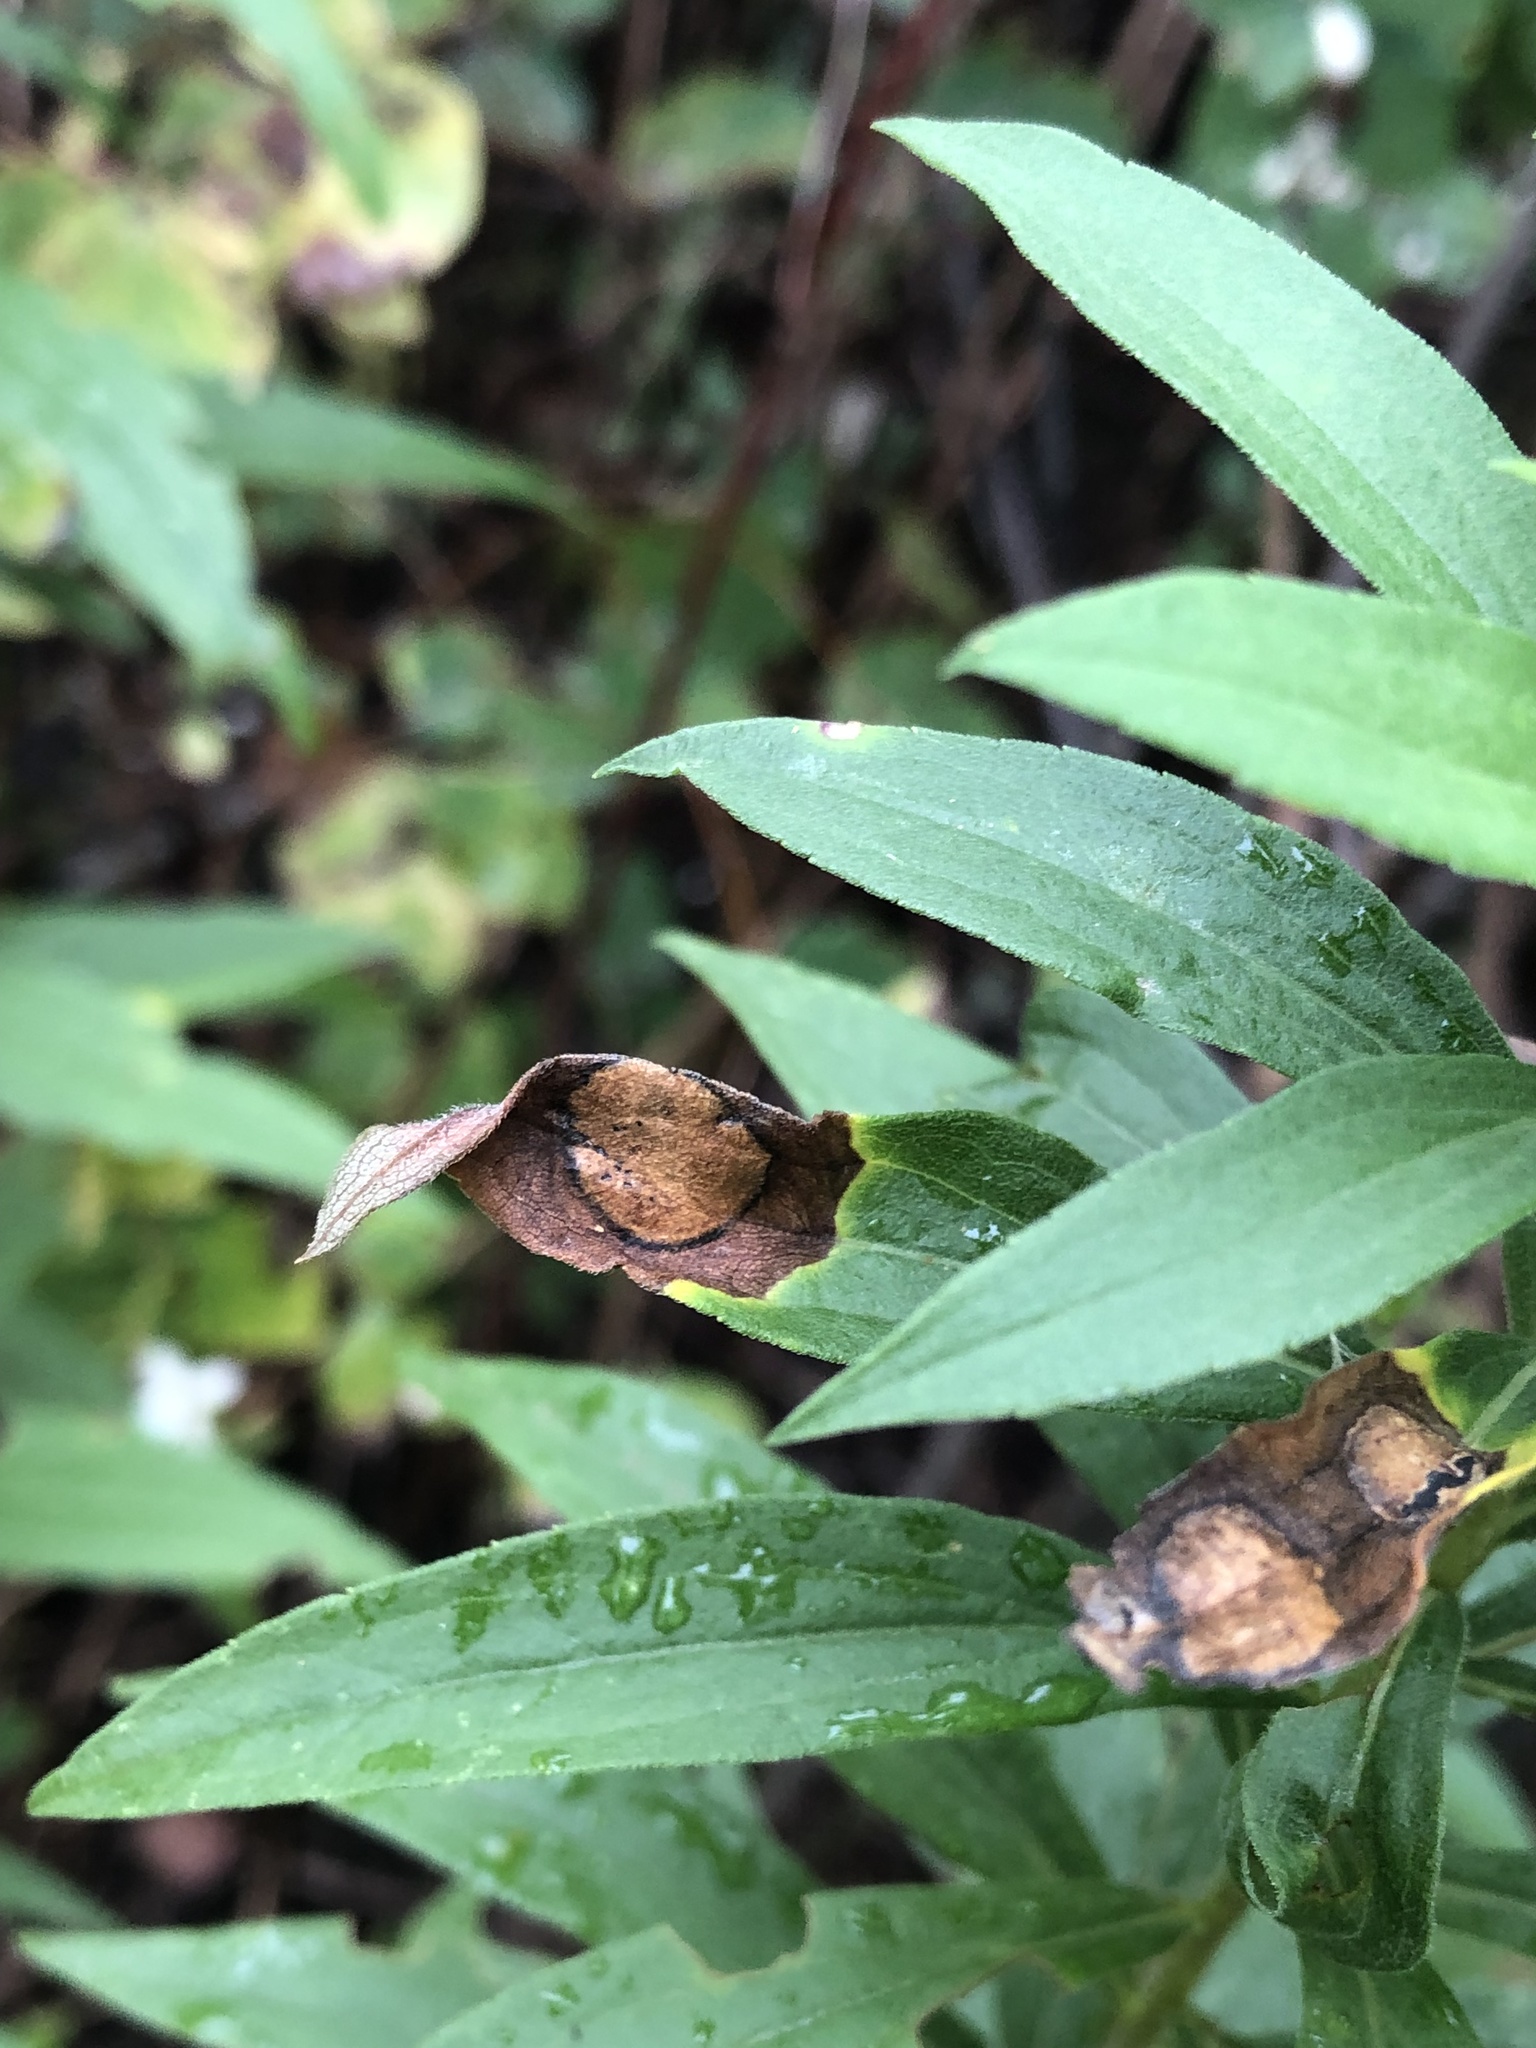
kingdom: Animalia
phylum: Arthropoda
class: Insecta
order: Diptera
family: Cecidomyiidae
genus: Asteromyia
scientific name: Asteromyia carbonifera
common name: Carbonifera goldenrod gall midge
